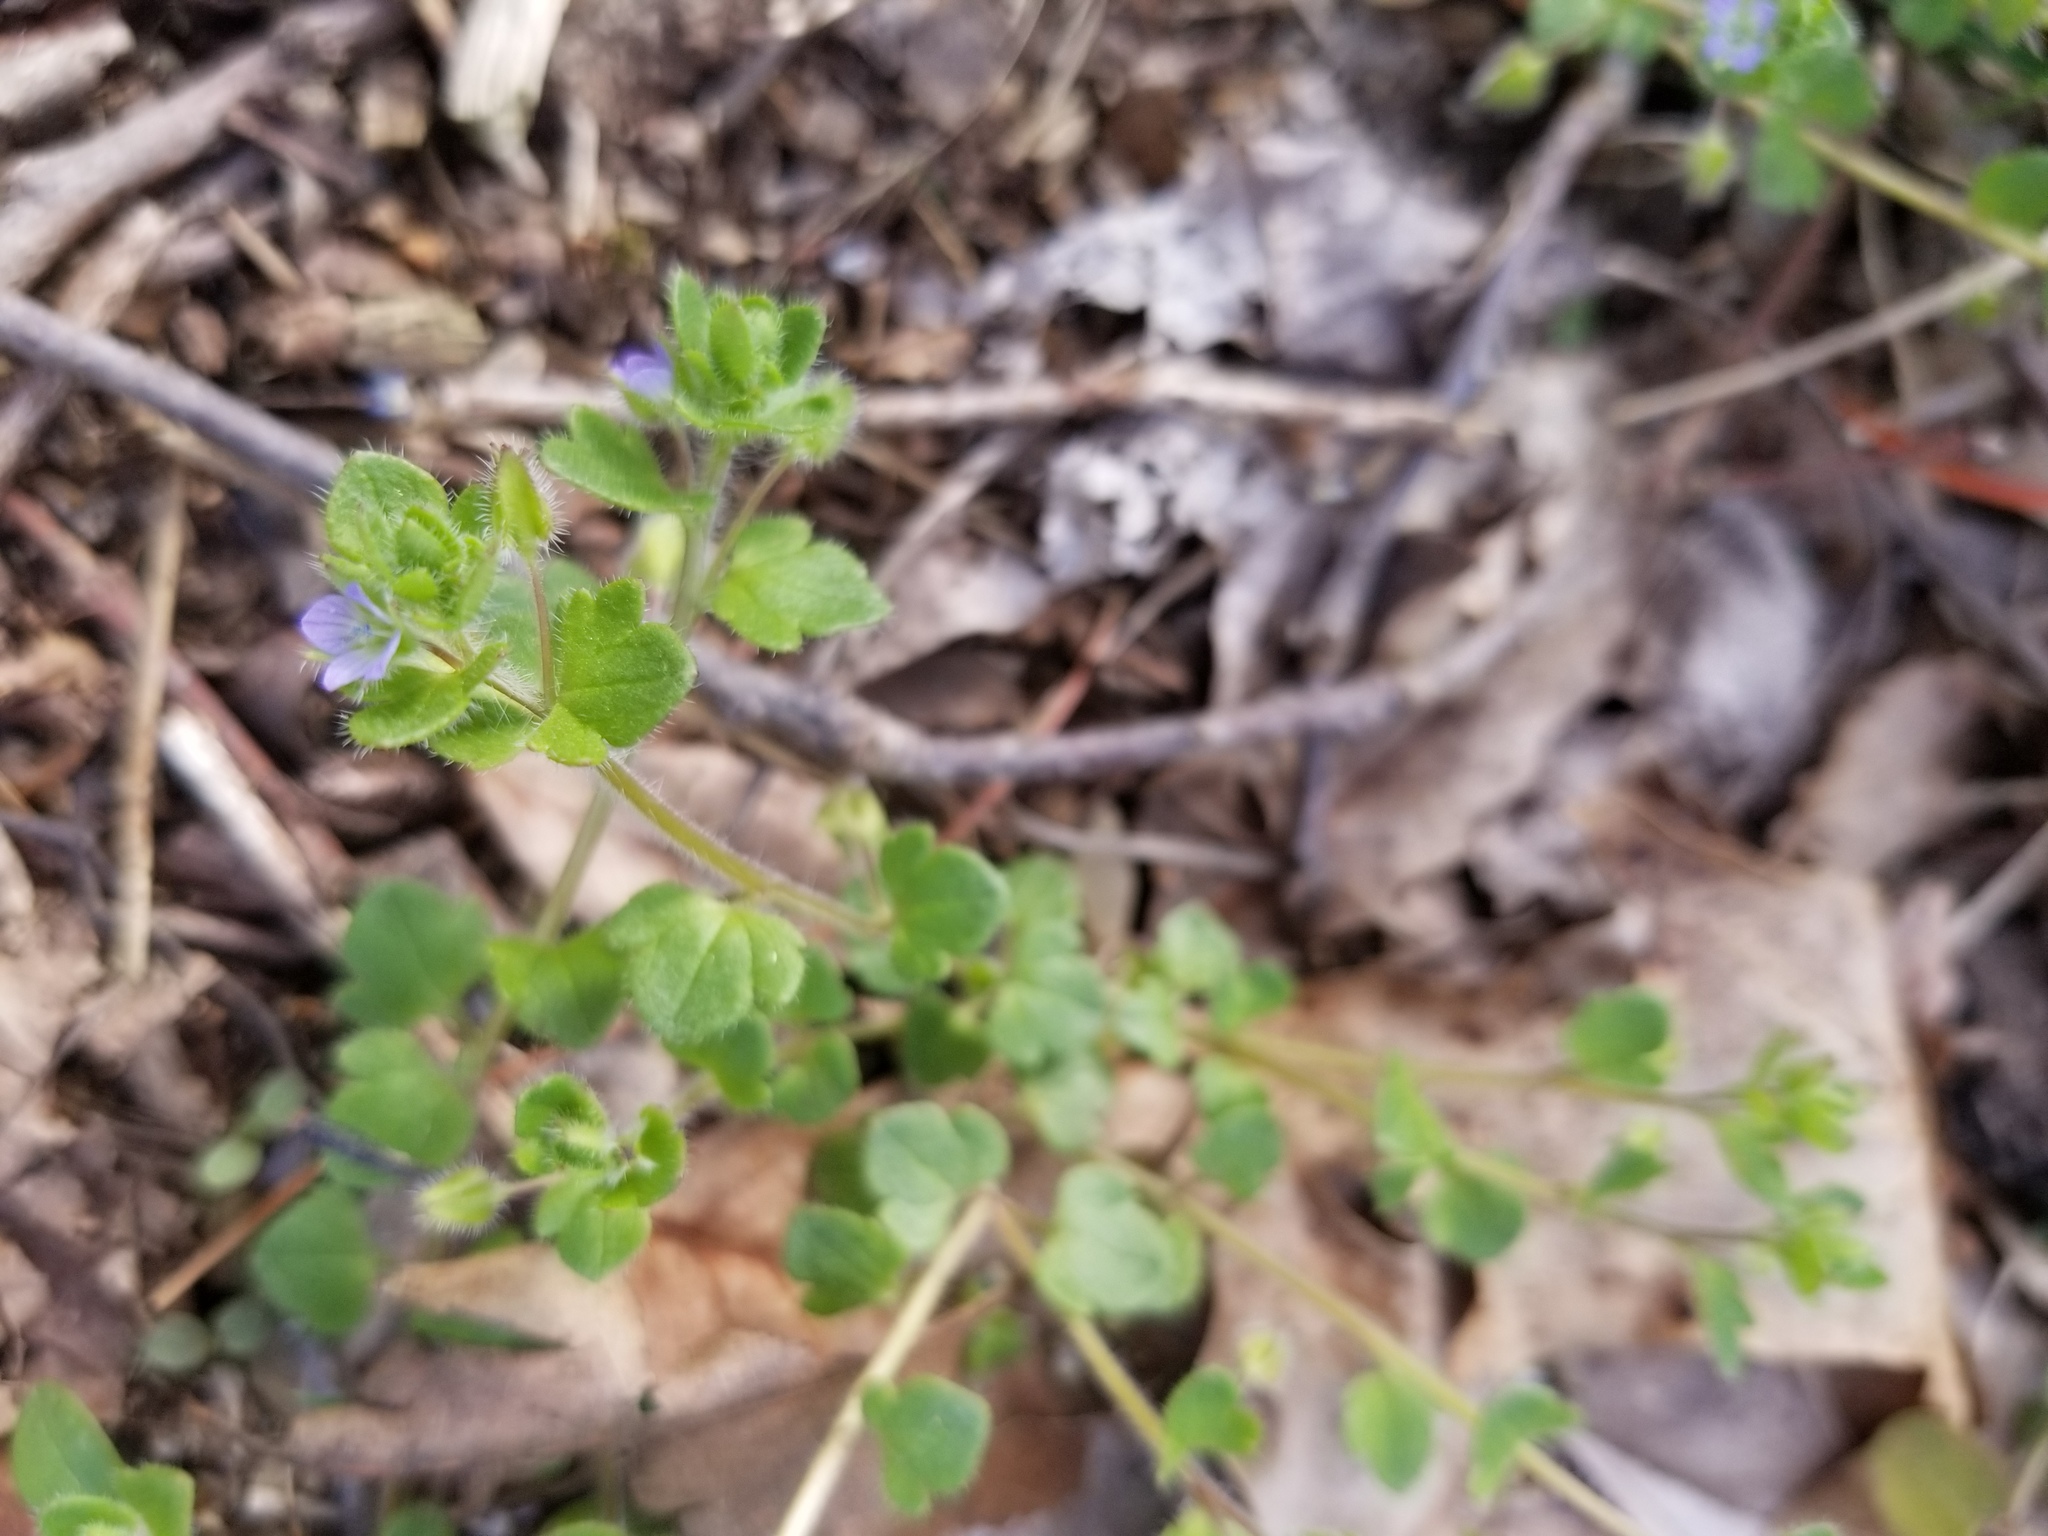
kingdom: Plantae
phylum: Tracheophyta
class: Magnoliopsida
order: Lamiales
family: Plantaginaceae
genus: Veronica
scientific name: Veronica hederifolia
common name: Ivy-leaved speedwell
